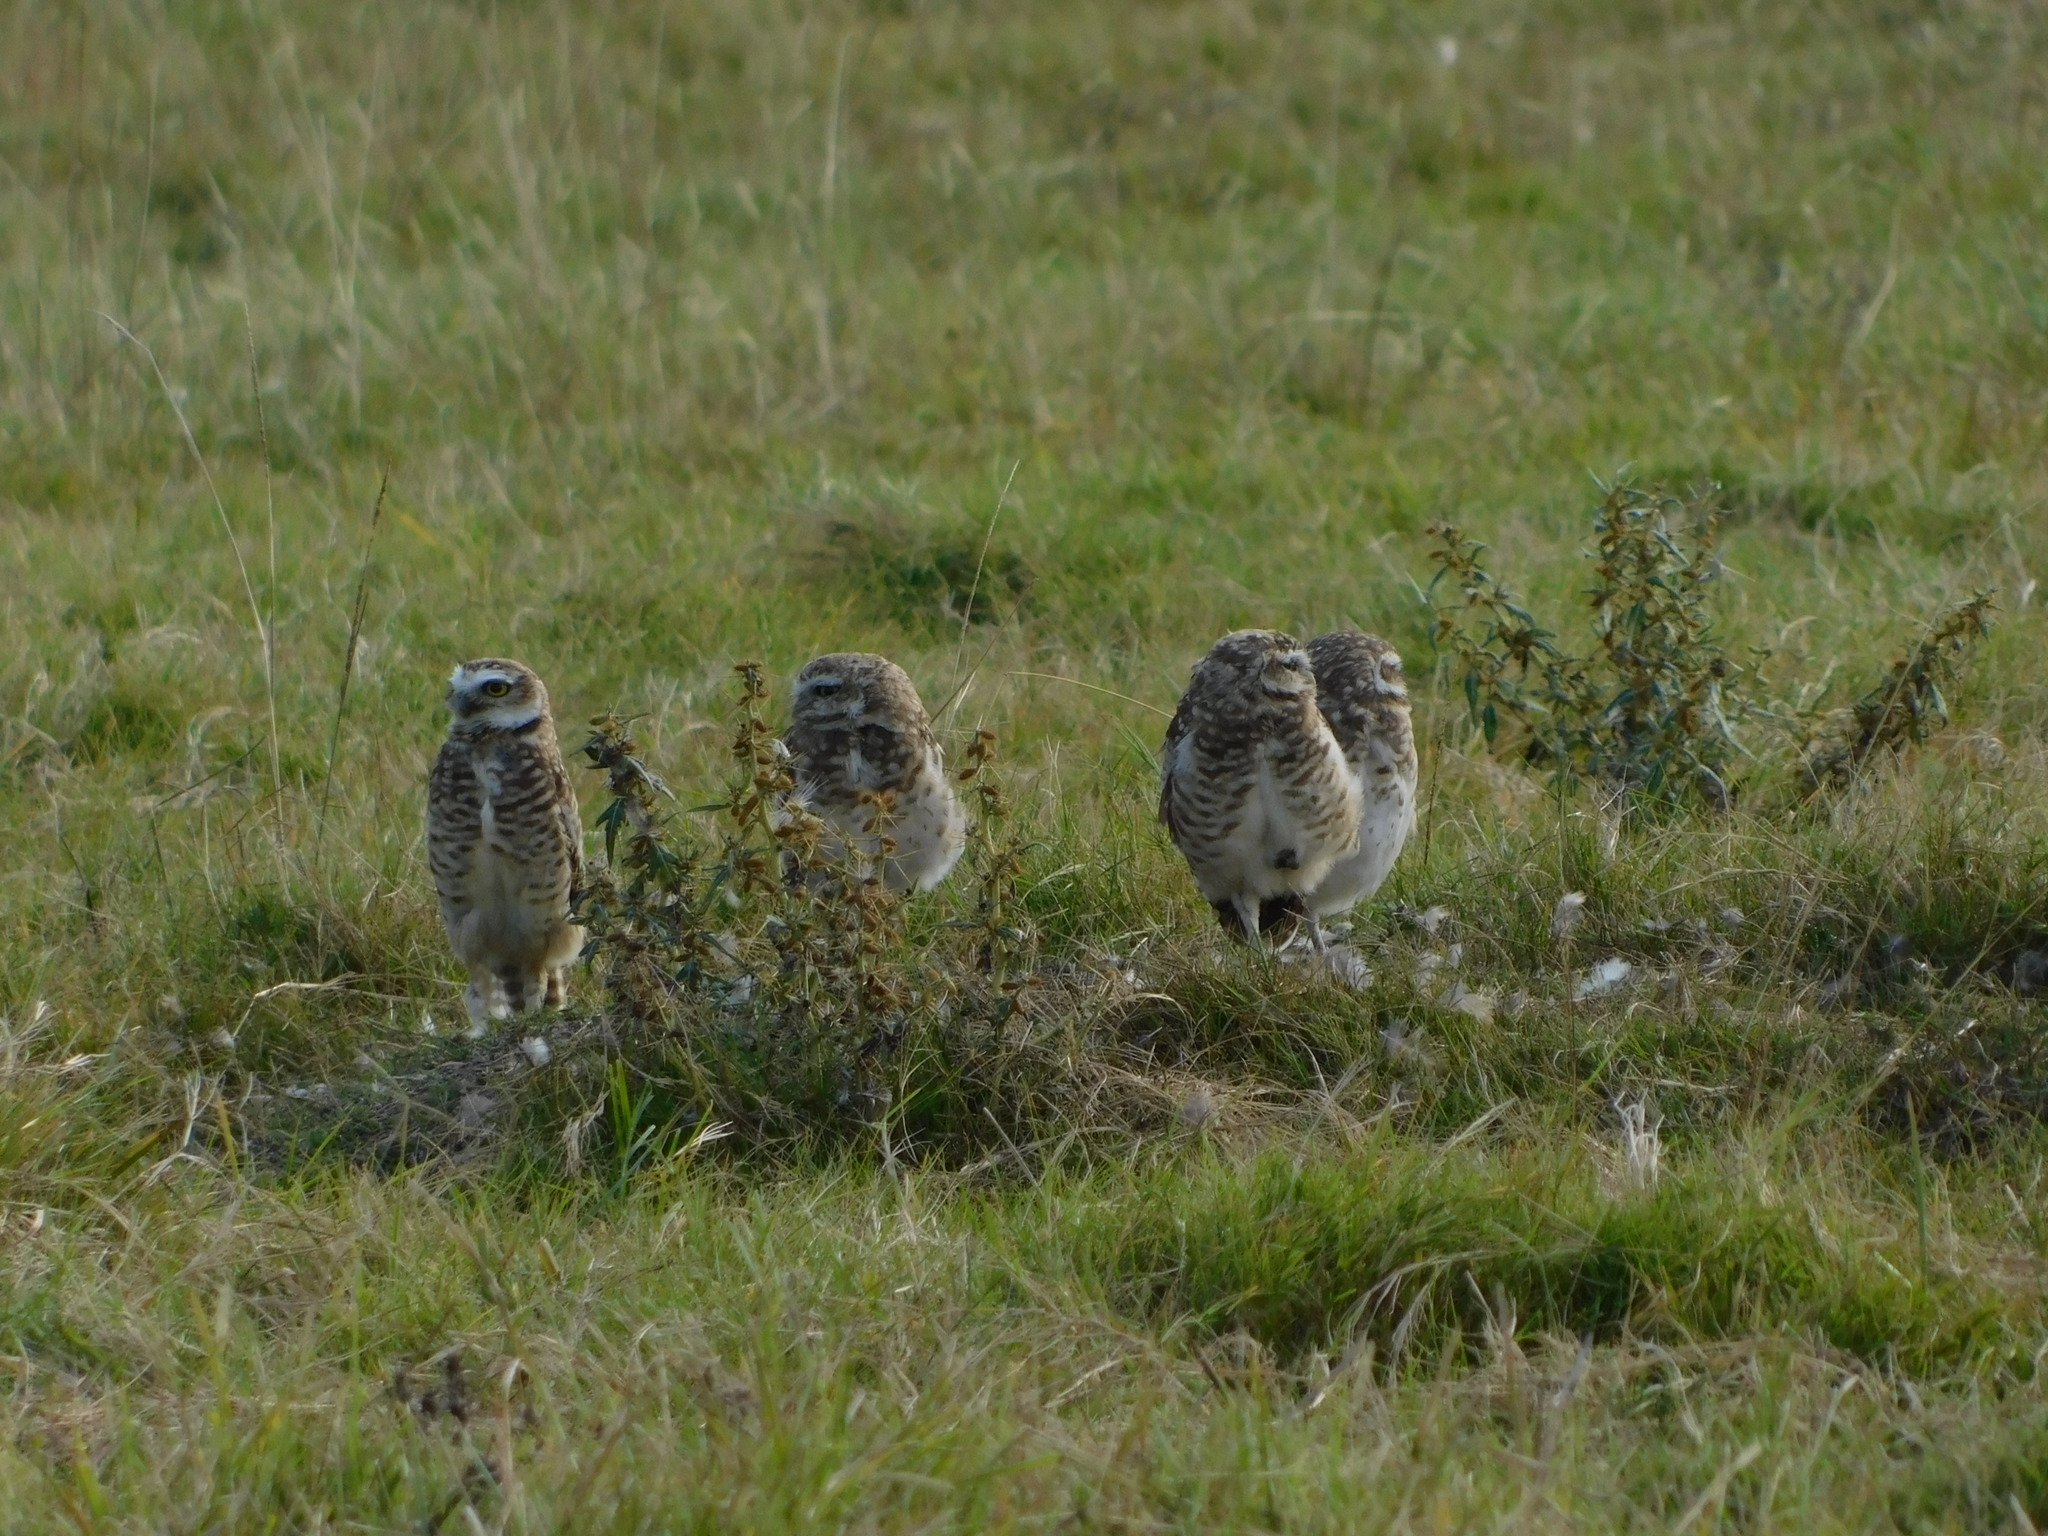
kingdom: Animalia
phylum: Chordata
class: Aves
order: Strigiformes
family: Strigidae
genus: Athene
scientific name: Athene cunicularia
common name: Burrowing owl
